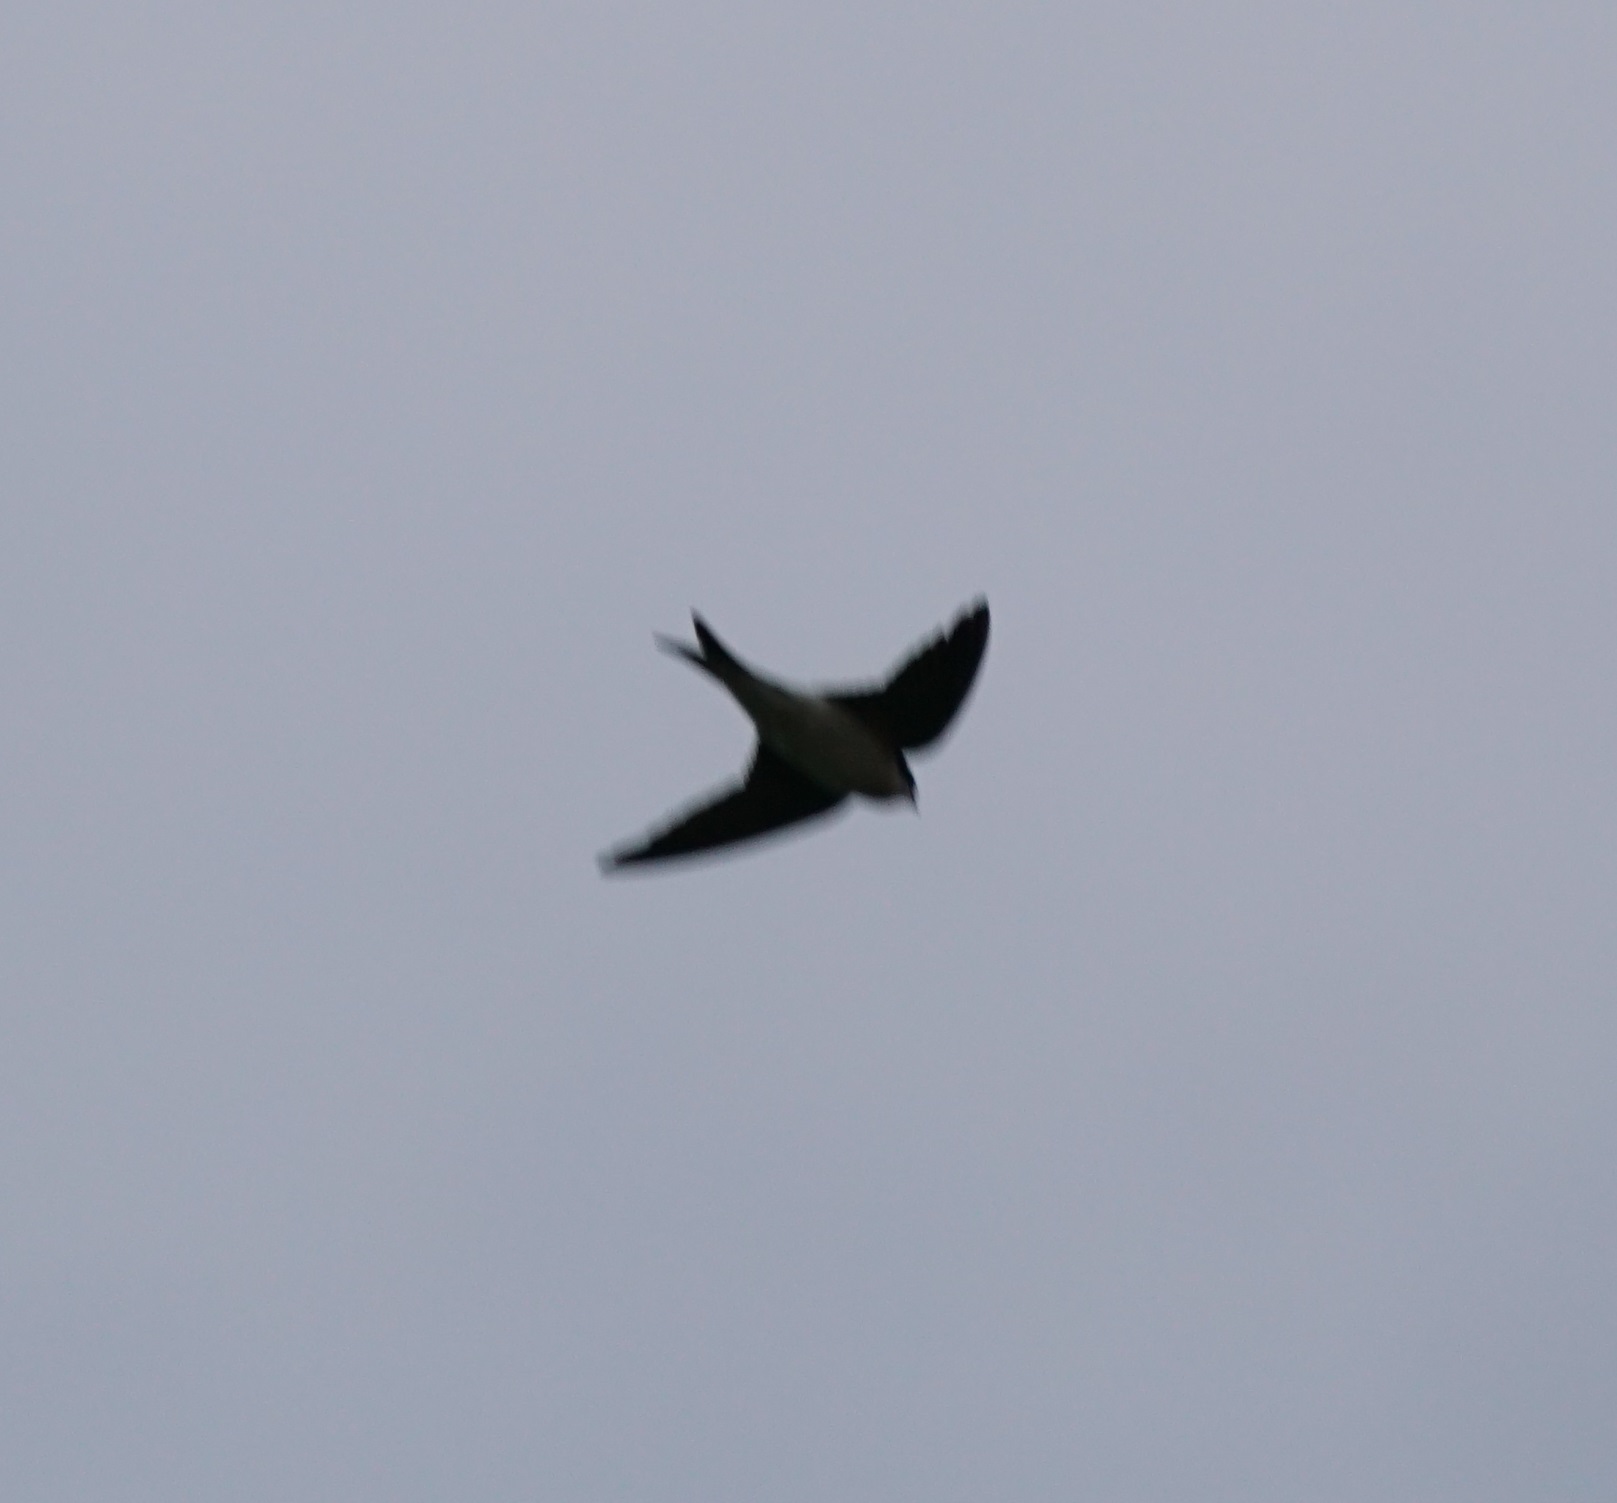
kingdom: Animalia
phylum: Chordata
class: Aves
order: Passeriformes
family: Hirundinidae
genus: Delichon
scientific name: Delichon urbicum
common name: Common house martin
